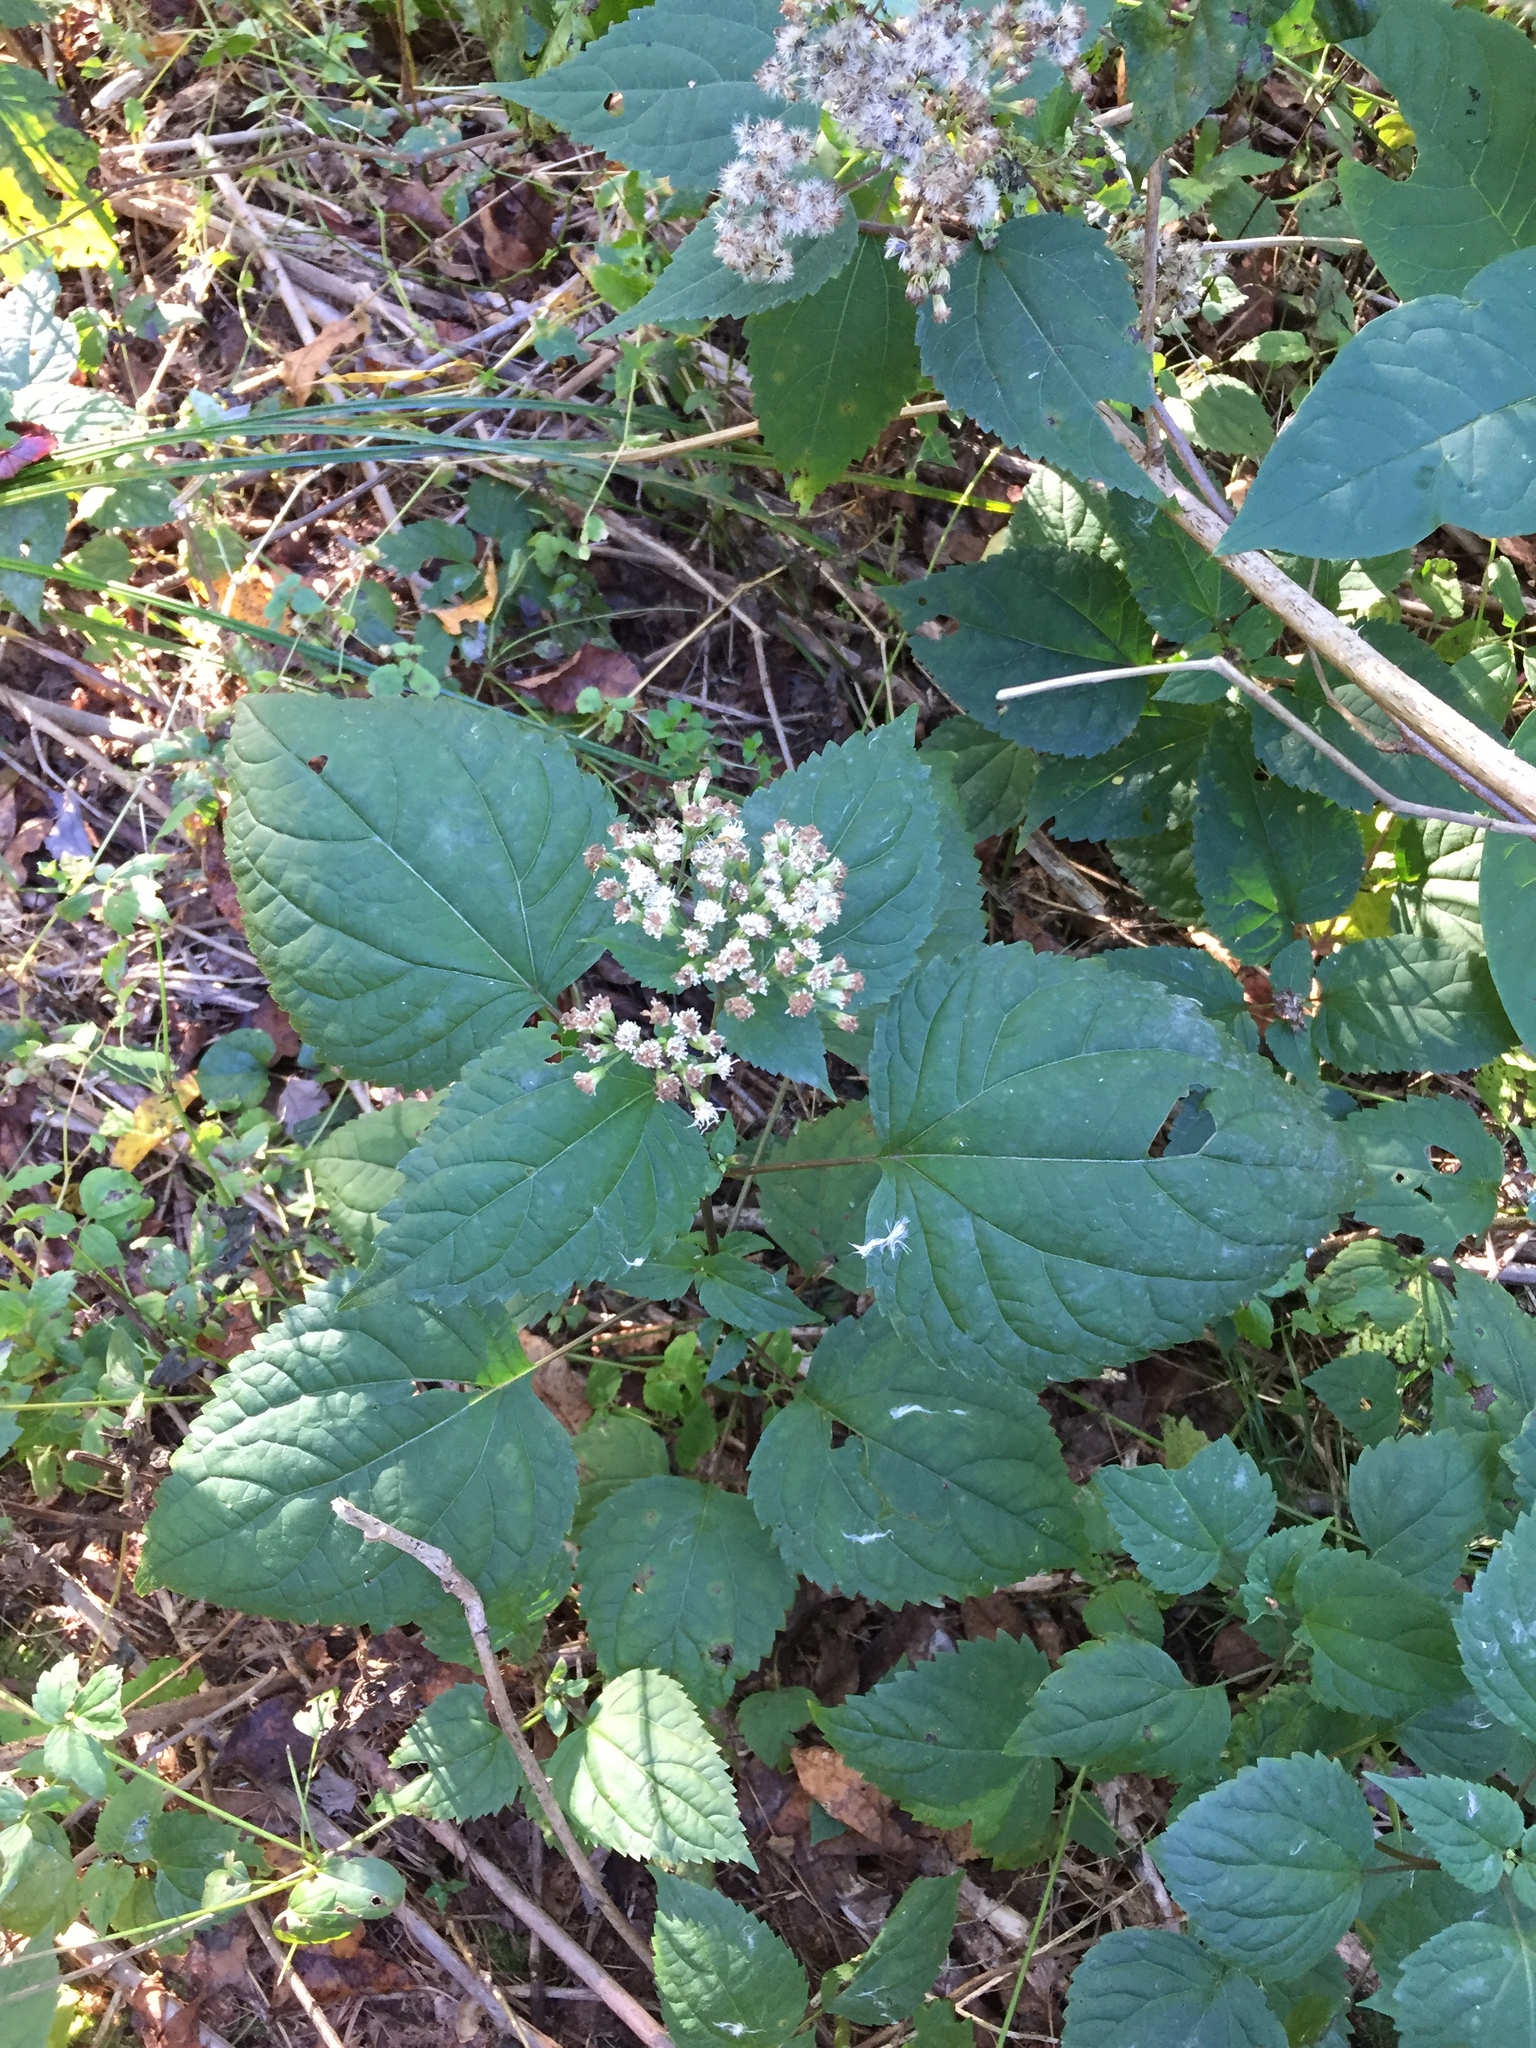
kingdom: Plantae
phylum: Tracheophyta
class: Magnoliopsida
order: Asterales
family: Asteraceae
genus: Ageratina
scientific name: Ageratina altissima
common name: White snakeroot
